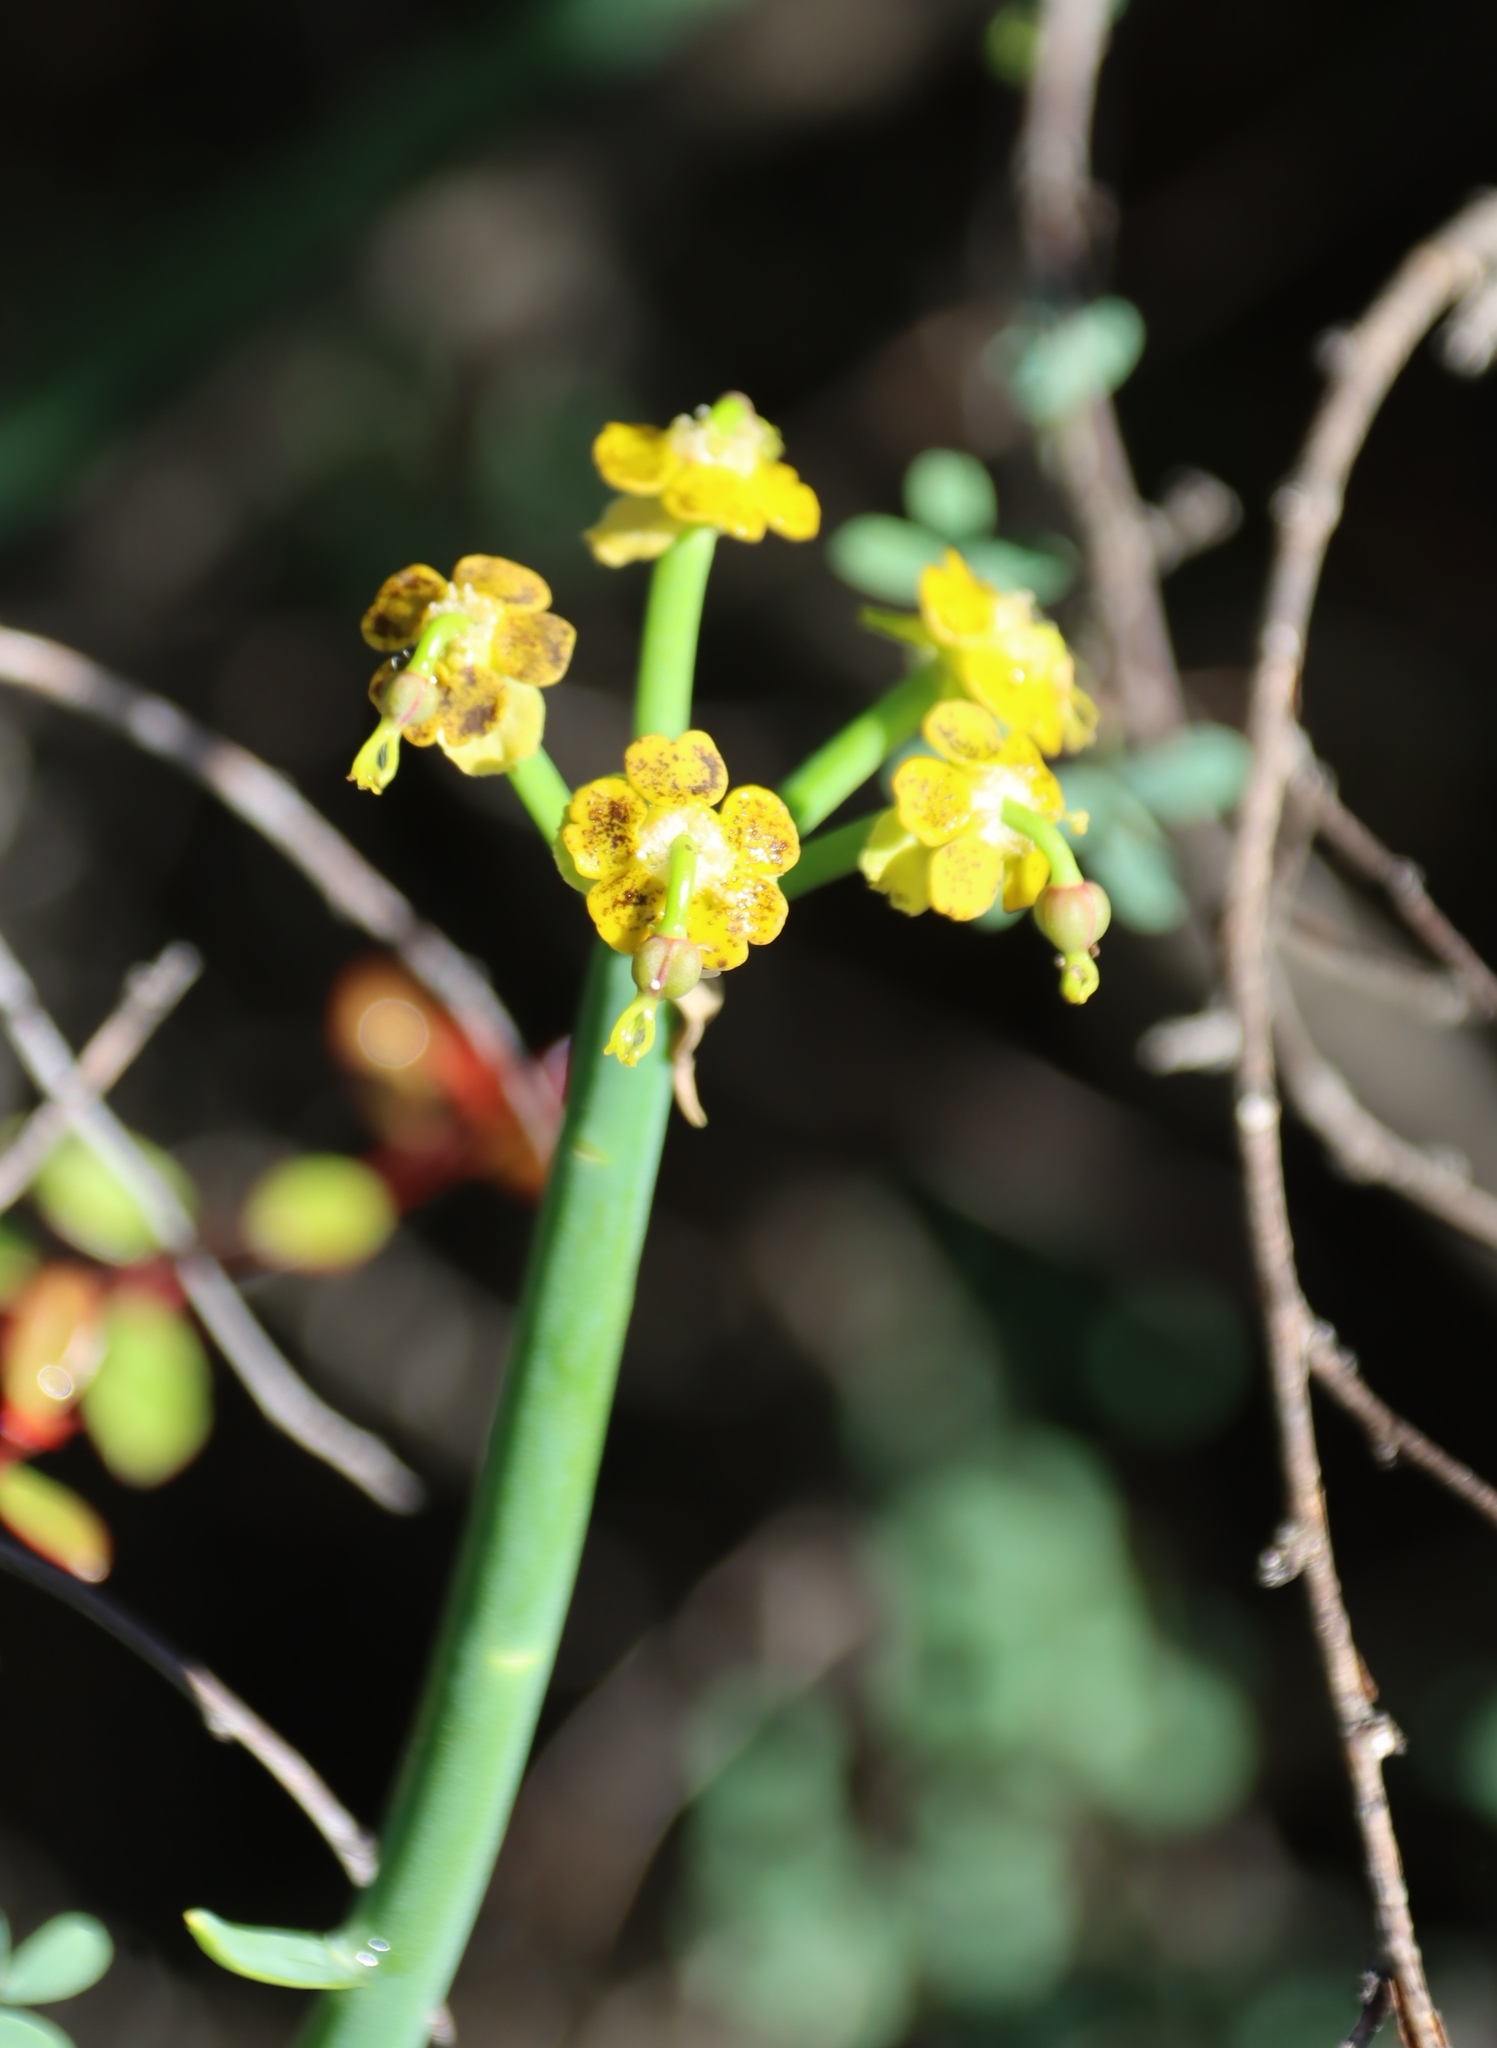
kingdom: Plantae
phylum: Tracheophyta
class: Magnoliopsida
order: Malpighiales
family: Euphorbiaceae
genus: Euphorbia
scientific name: Euphorbia mauritanica
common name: Jackal's-food
